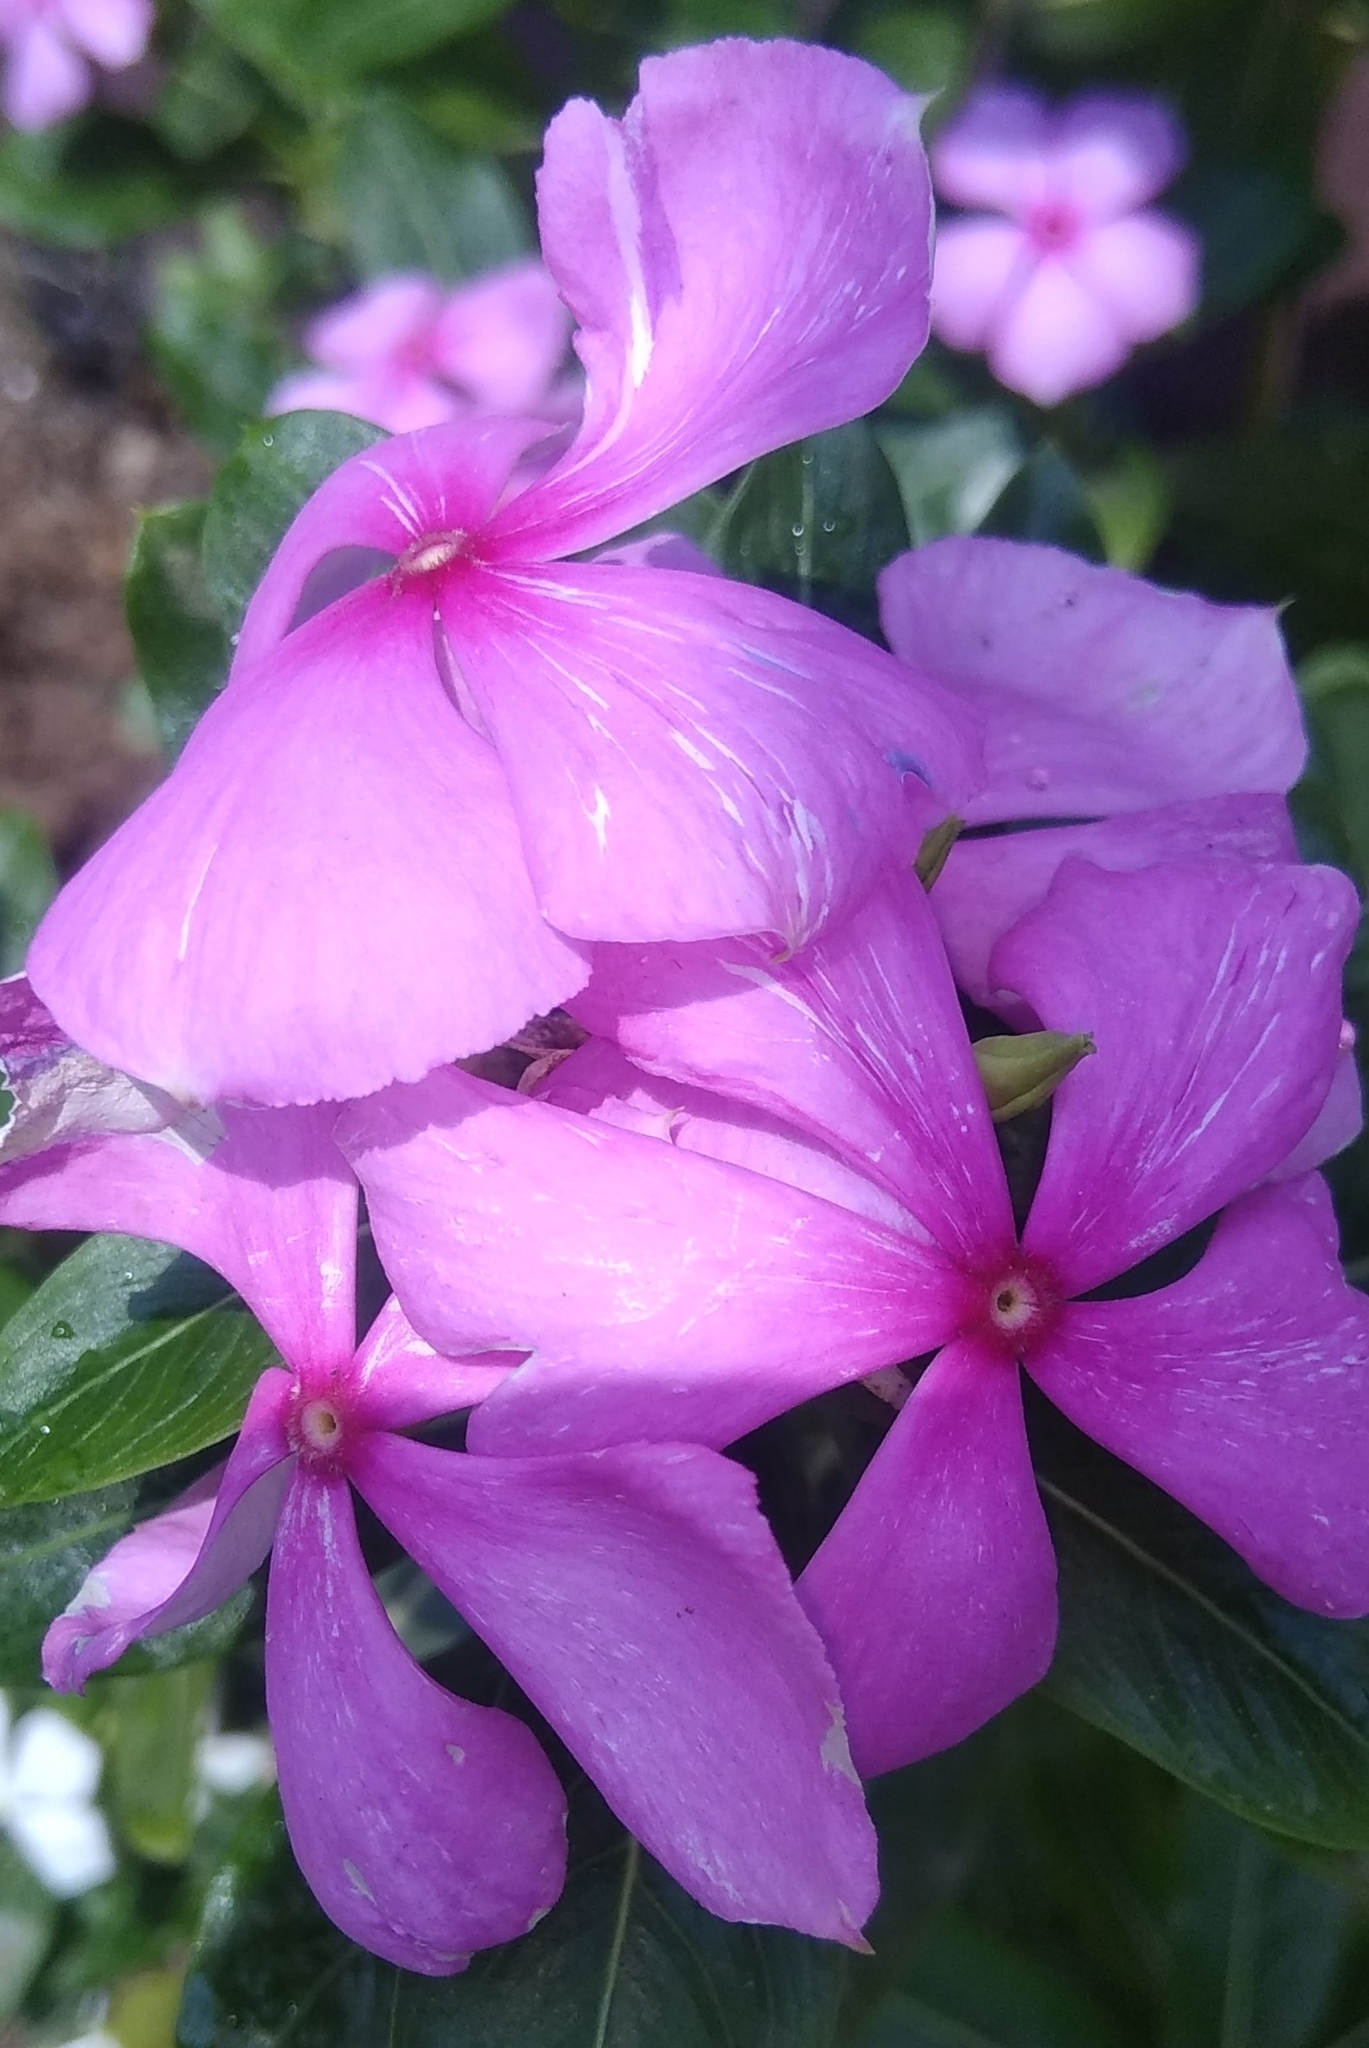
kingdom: Plantae
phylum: Tracheophyta
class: Magnoliopsida
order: Gentianales
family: Apocynaceae
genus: Catharanthus
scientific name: Catharanthus roseus
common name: Madagascar periwinkle
